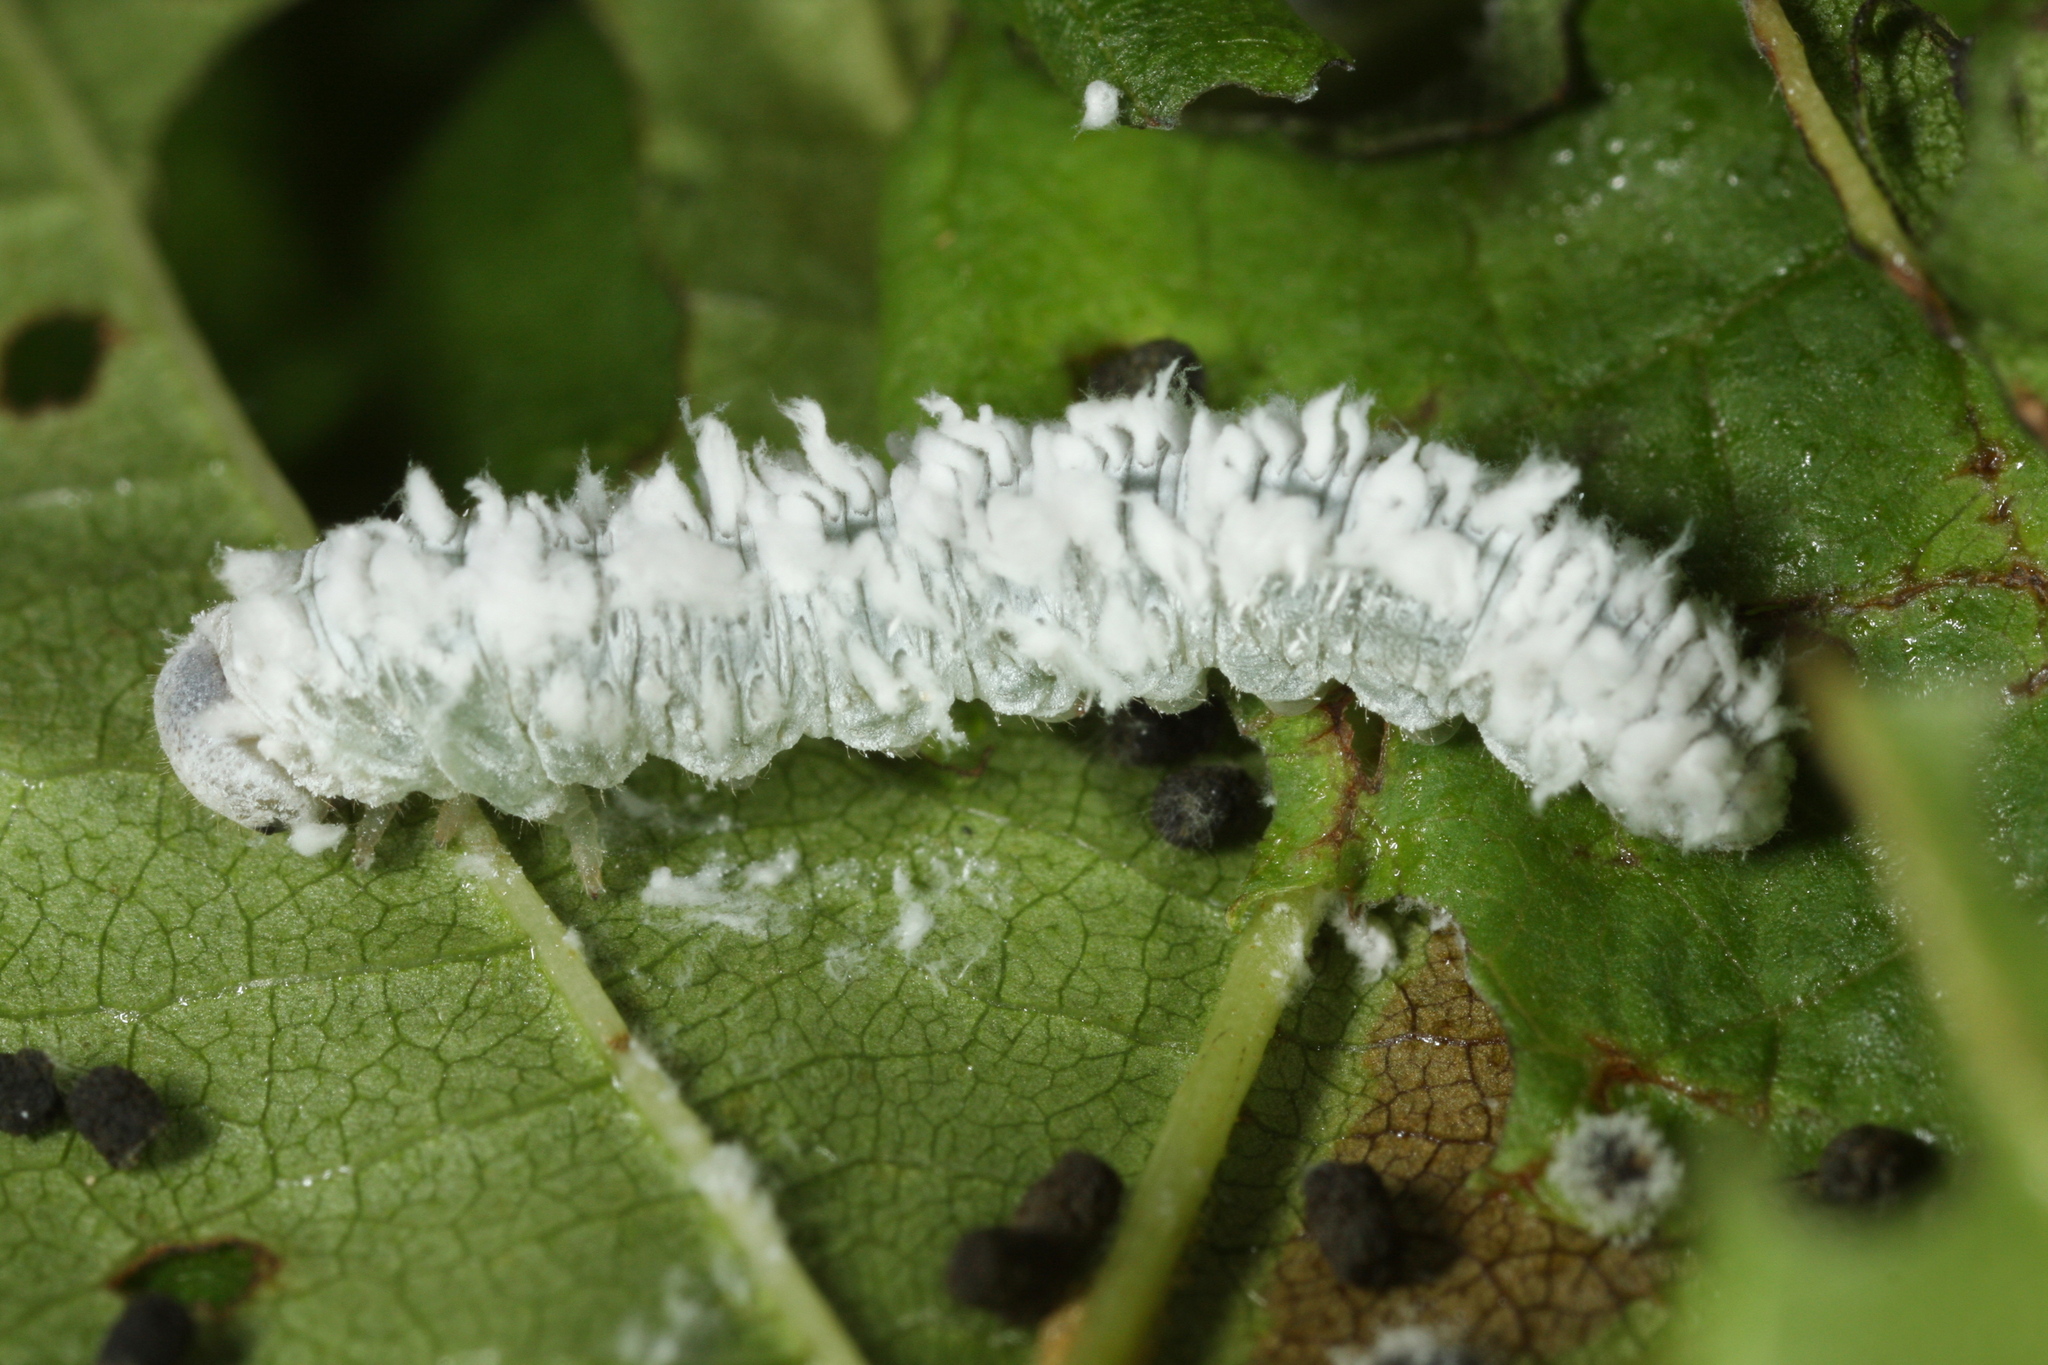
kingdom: Animalia
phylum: Arthropoda
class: Insecta
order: Hymenoptera
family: Tenthredinidae
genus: Eriocampa
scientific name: Eriocampa ovata
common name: Alder wooly sawfly
